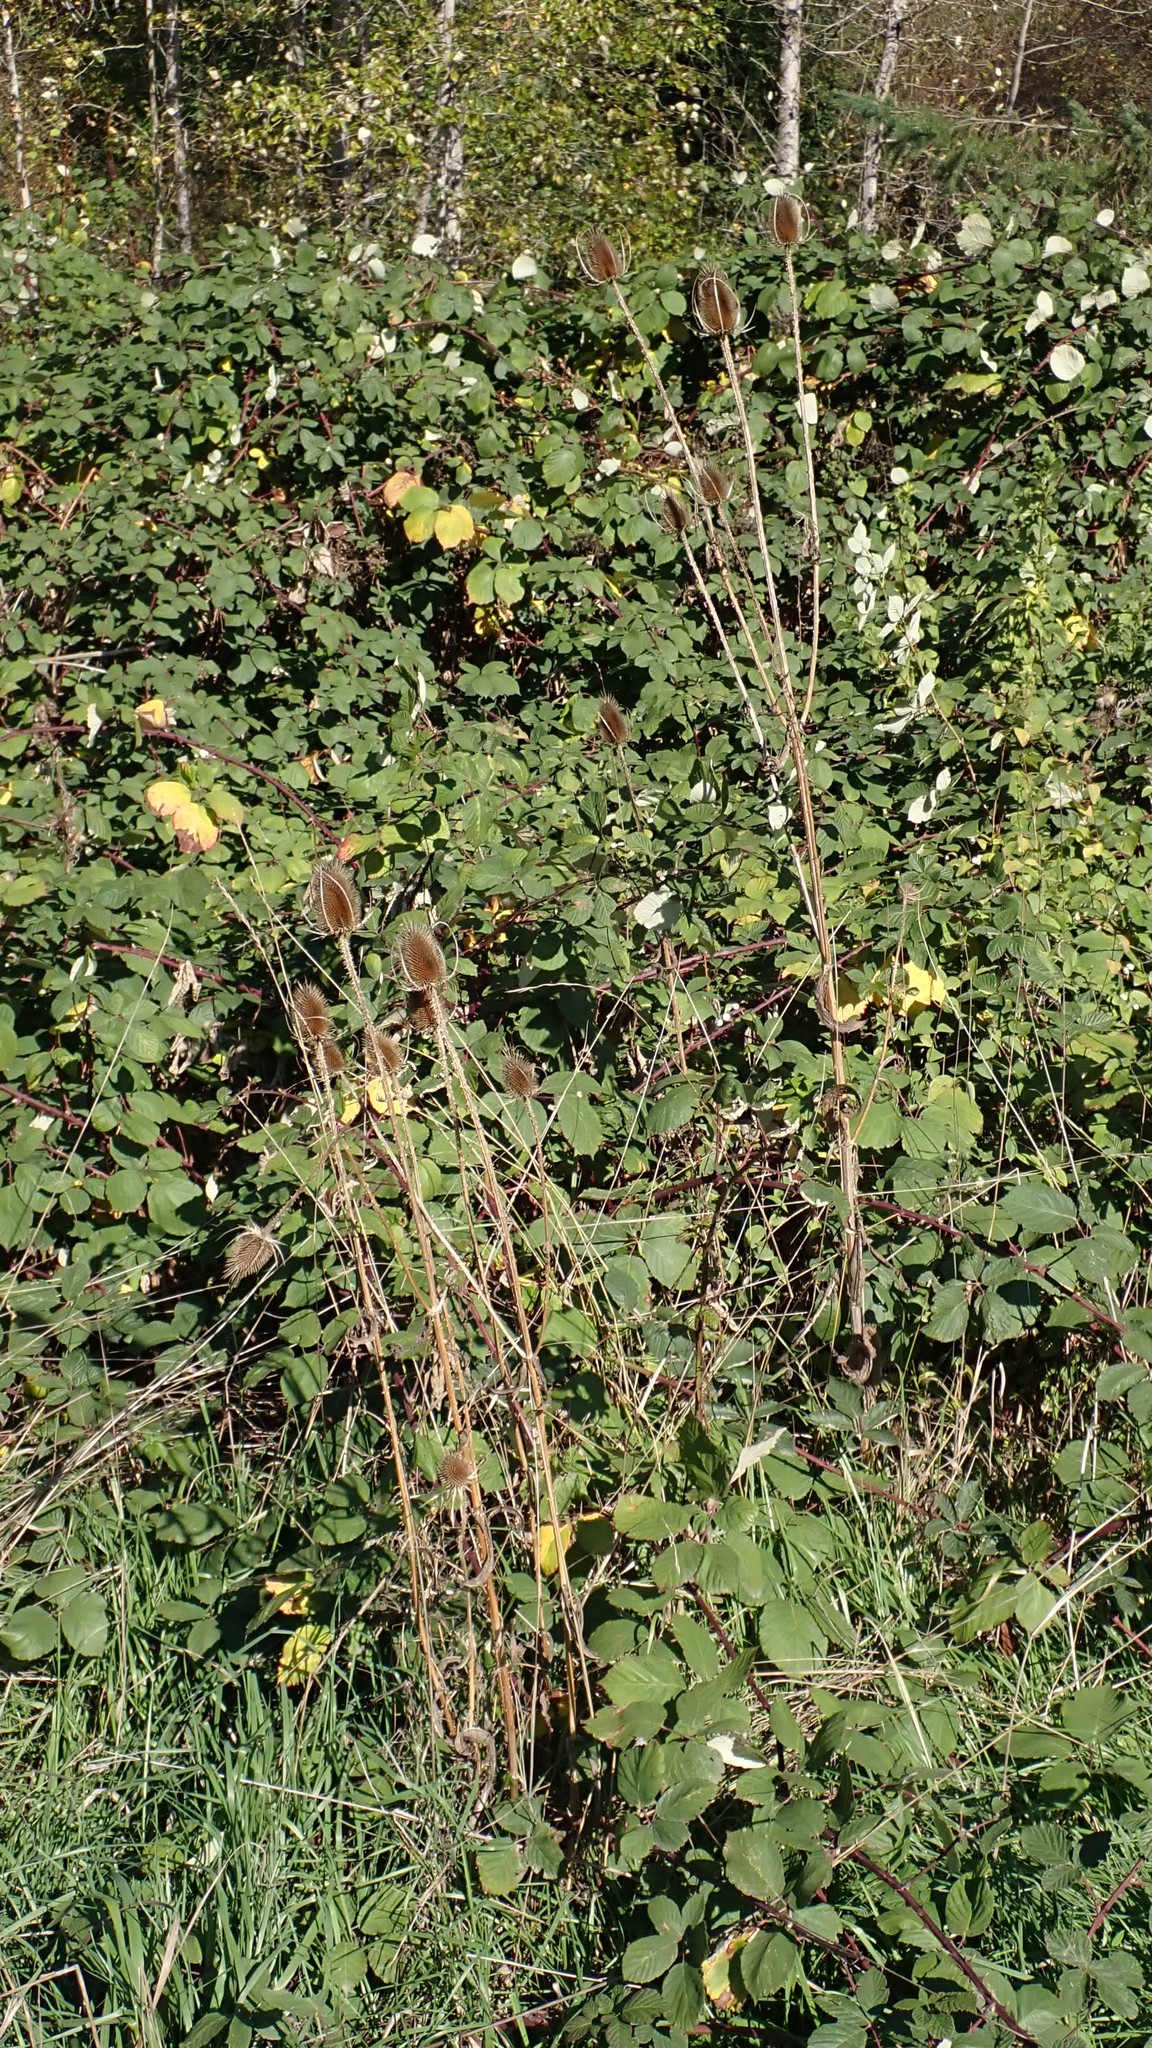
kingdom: Plantae
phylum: Tracheophyta
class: Magnoliopsida
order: Dipsacales
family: Caprifoliaceae
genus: Dipsacus
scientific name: Dipsacus fullonum
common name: Teasel
